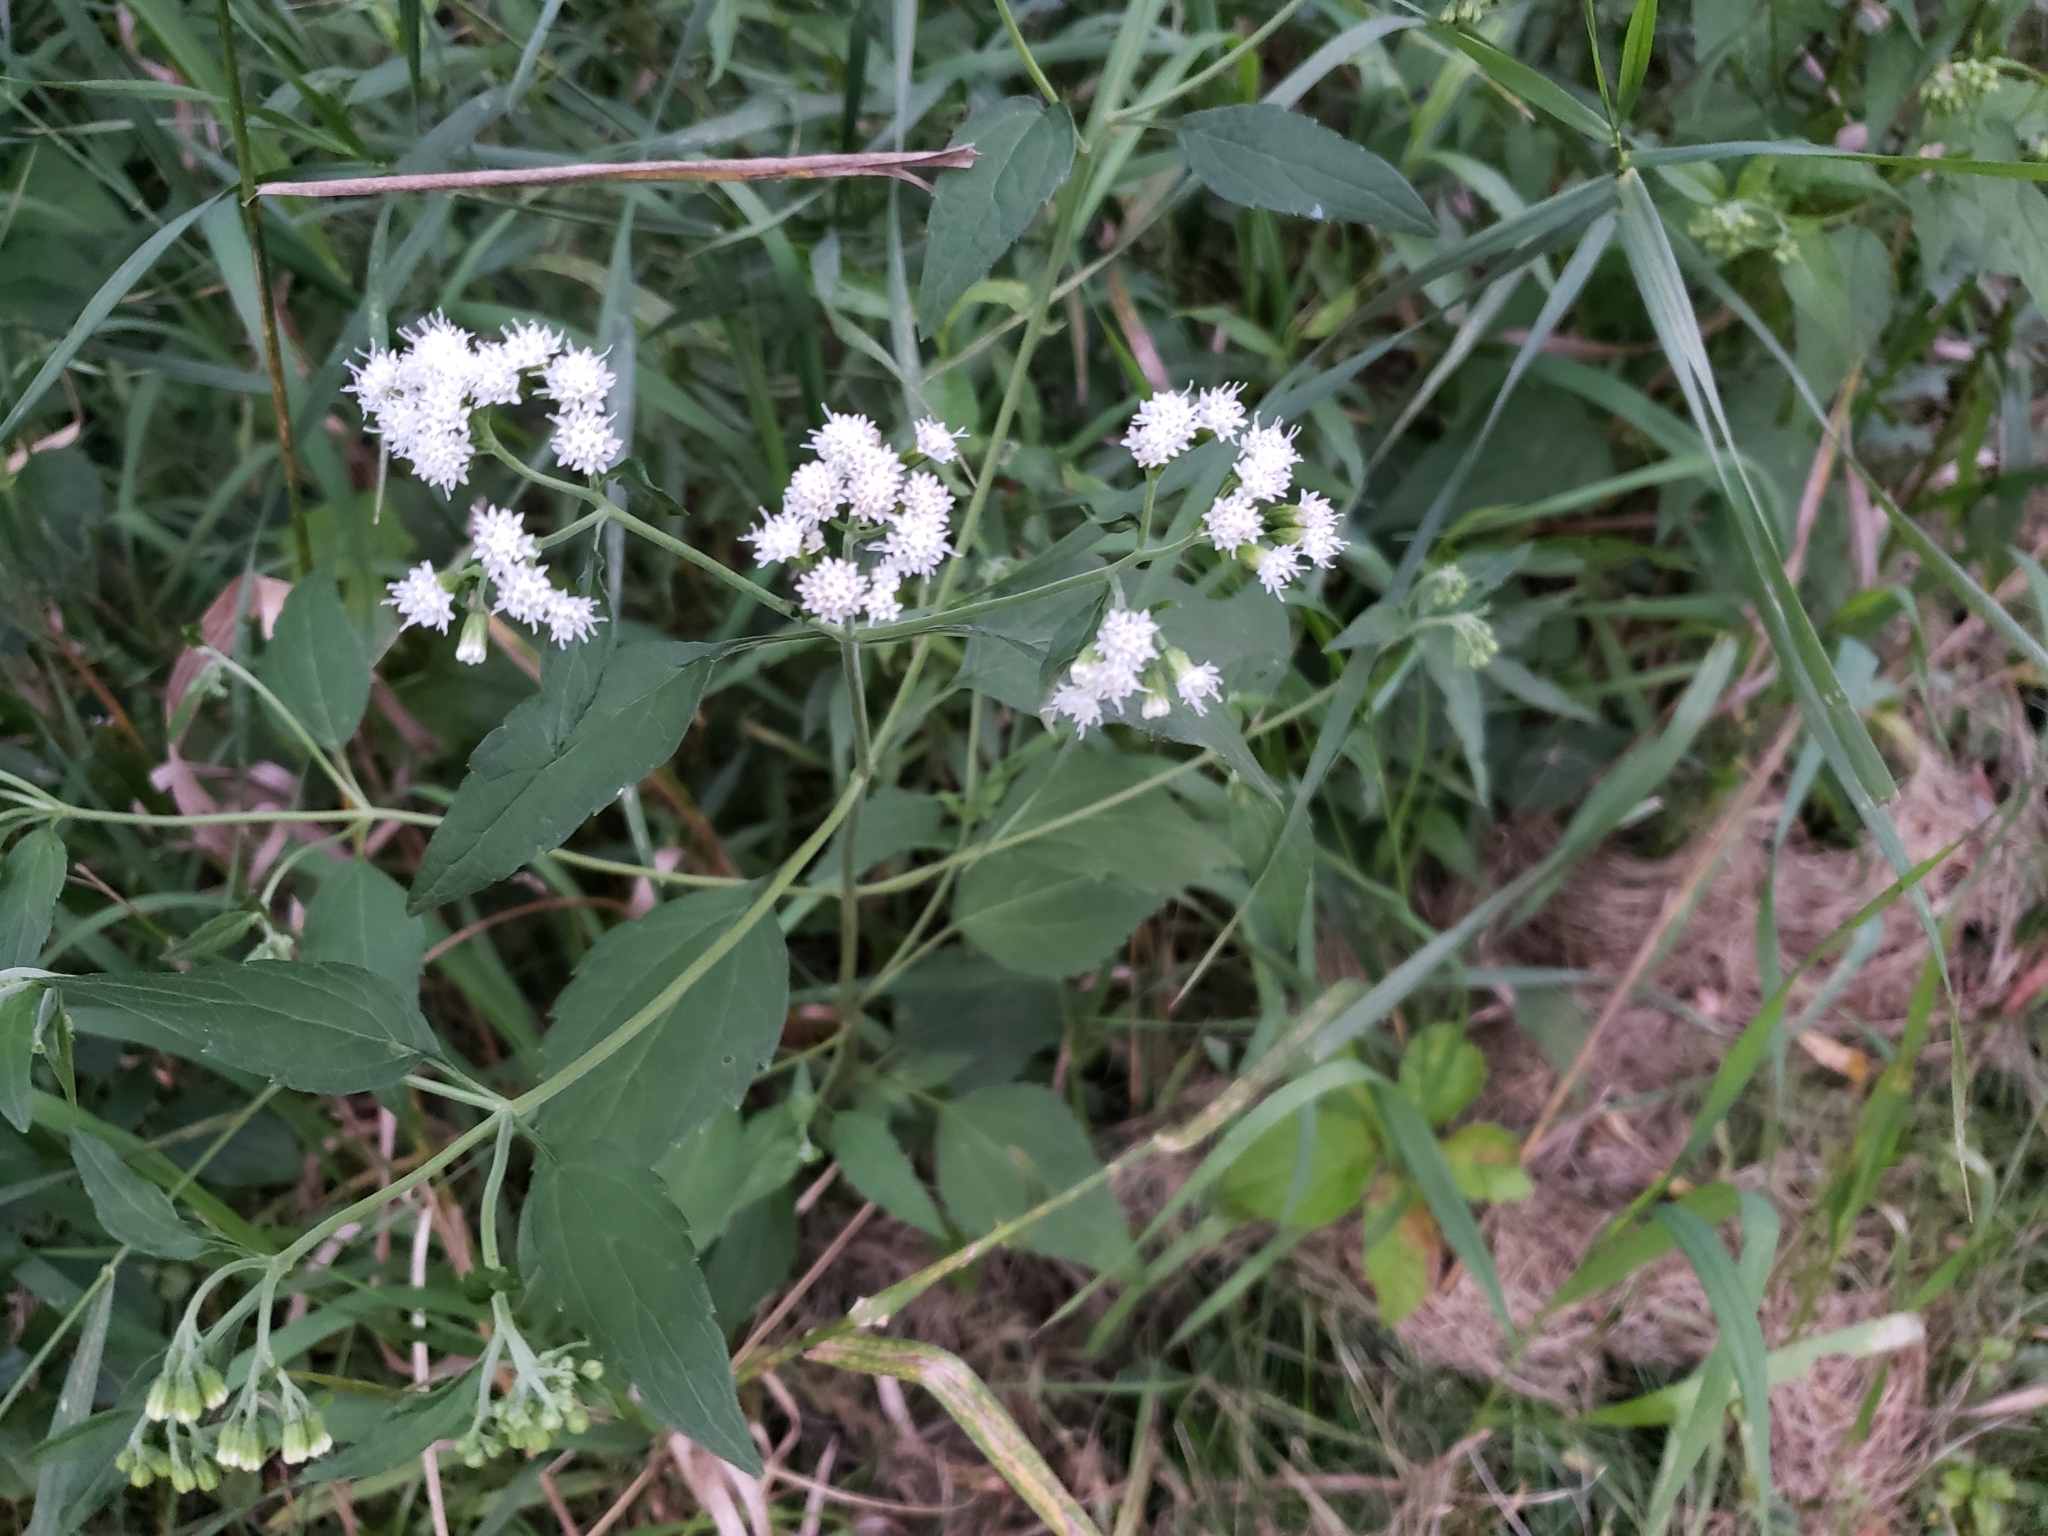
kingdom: Plantae
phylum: Tracheophyta
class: Magnoliopsida
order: Asterales
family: Asteraceae
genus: Ageratina
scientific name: Ageratina altissima
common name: White snakeroot
